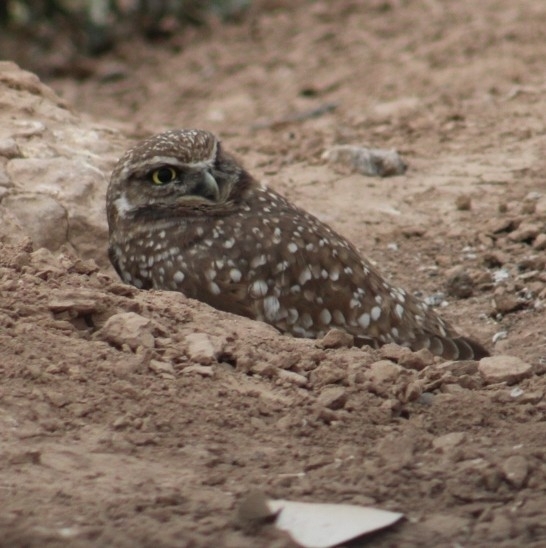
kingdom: Animalia
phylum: Chordata
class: Aves
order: Strigiformes
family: Strigidae
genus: Athene
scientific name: Athene cunicularia
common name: Burrowing owl
